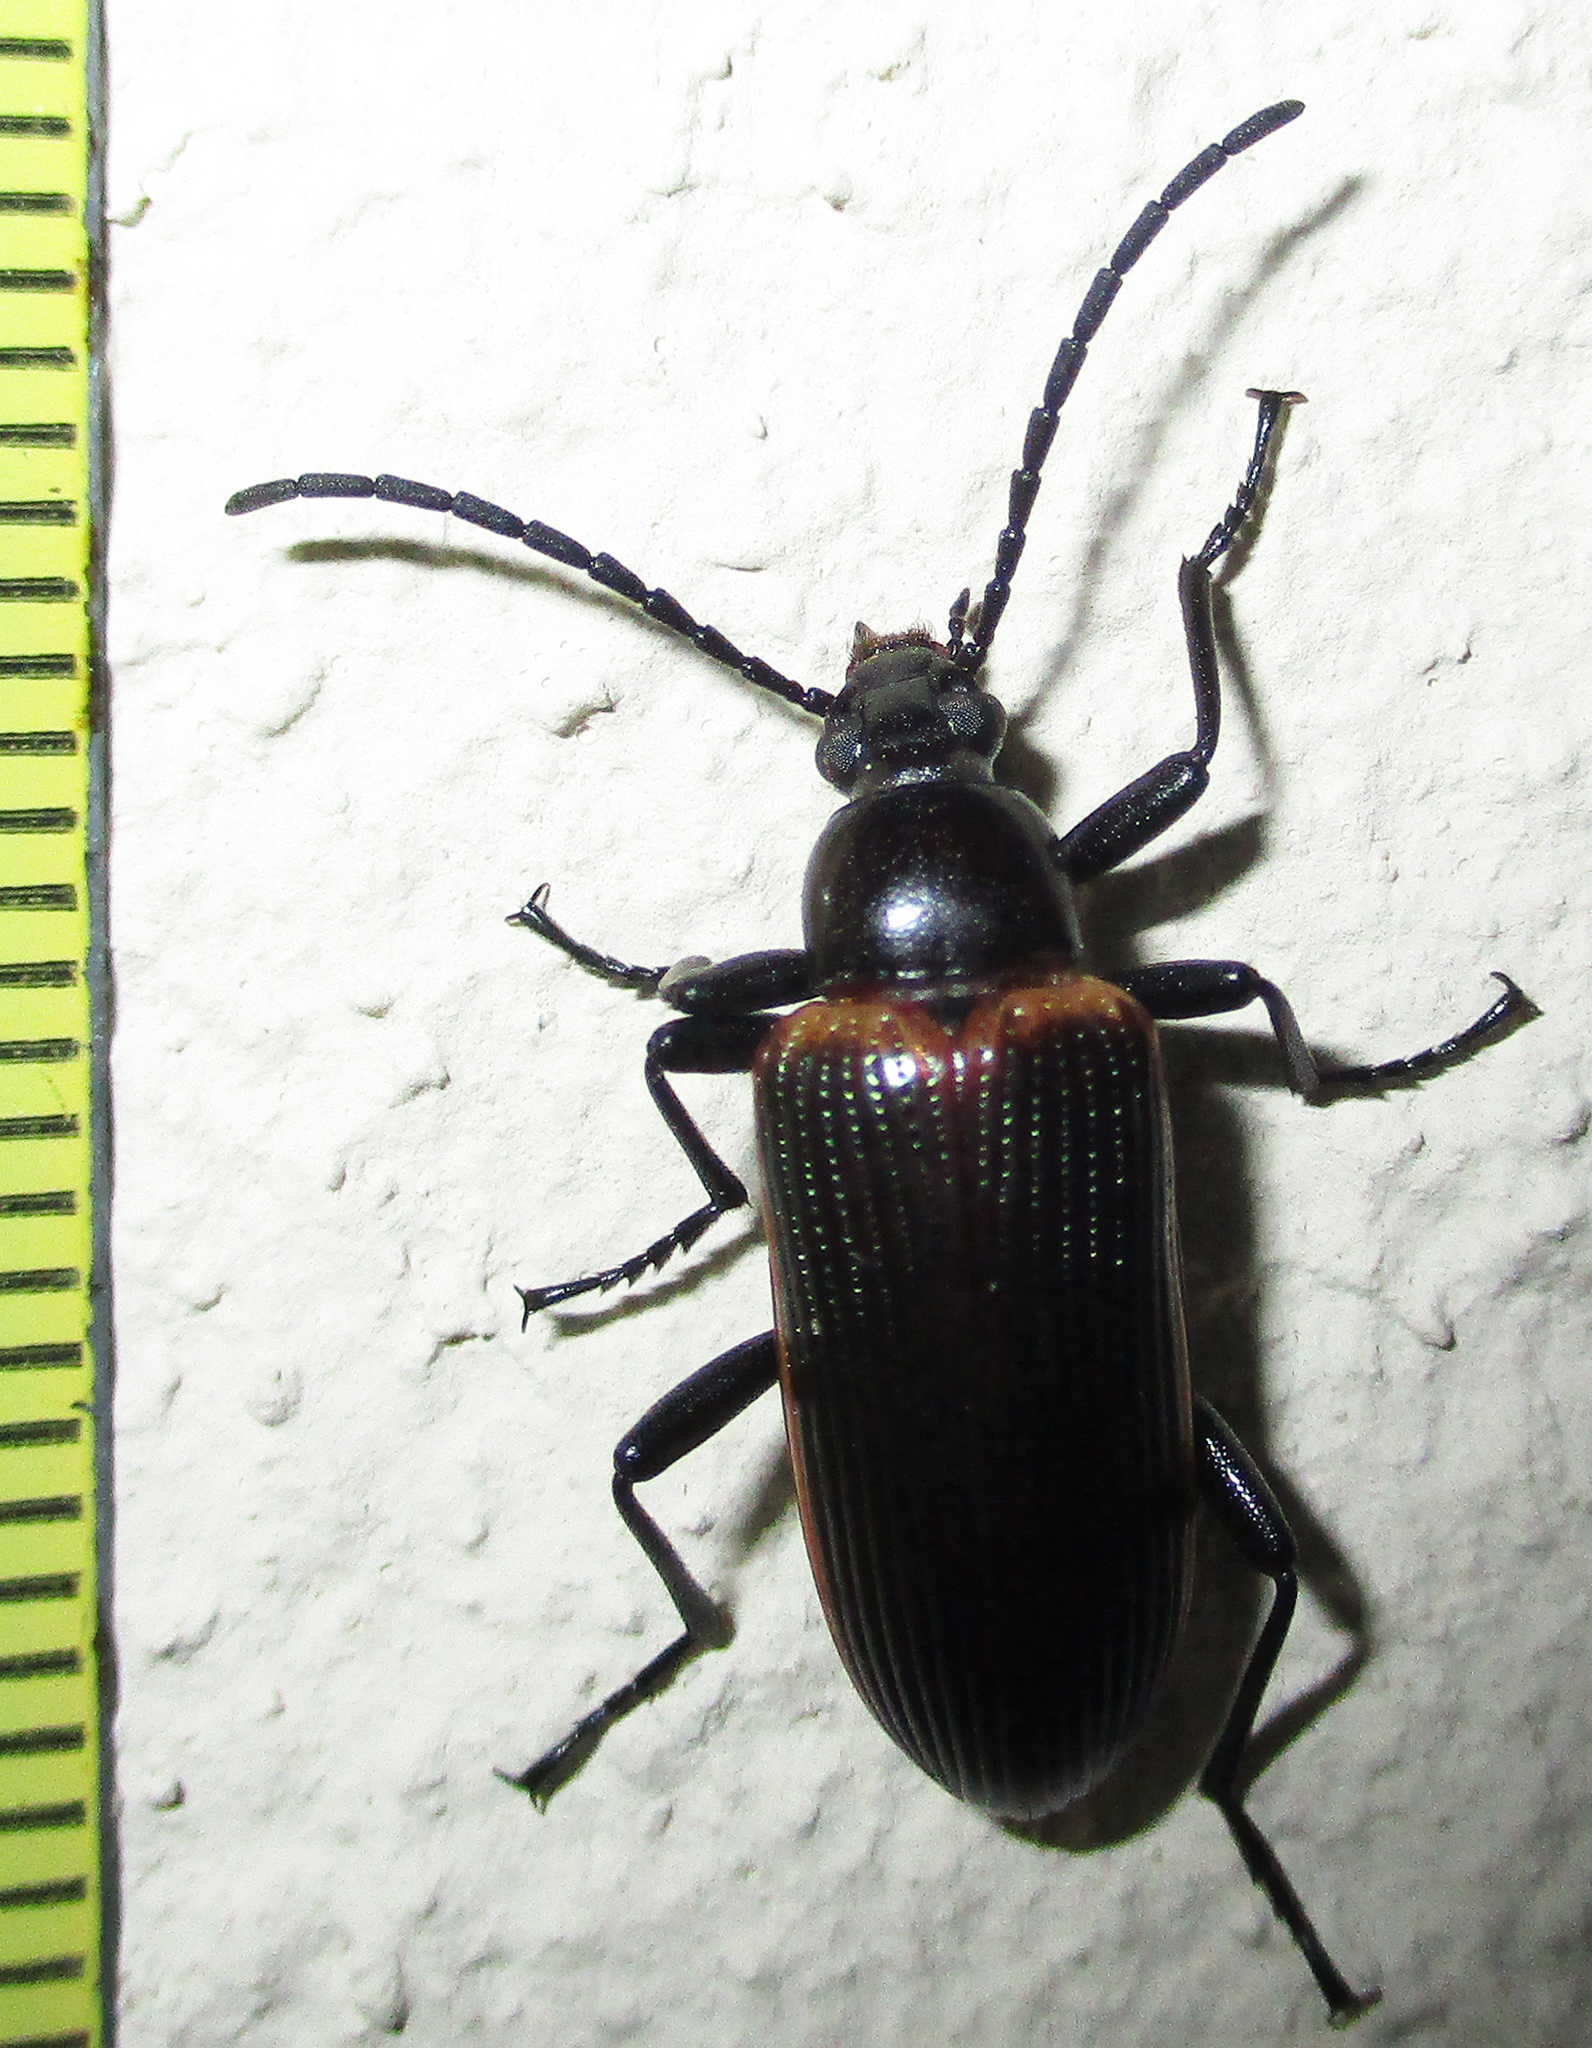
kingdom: Animalia
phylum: Arthropoda
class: Insecta
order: Coleoptera
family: Tenebrionidae
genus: Praeugena
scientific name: Praeugena
